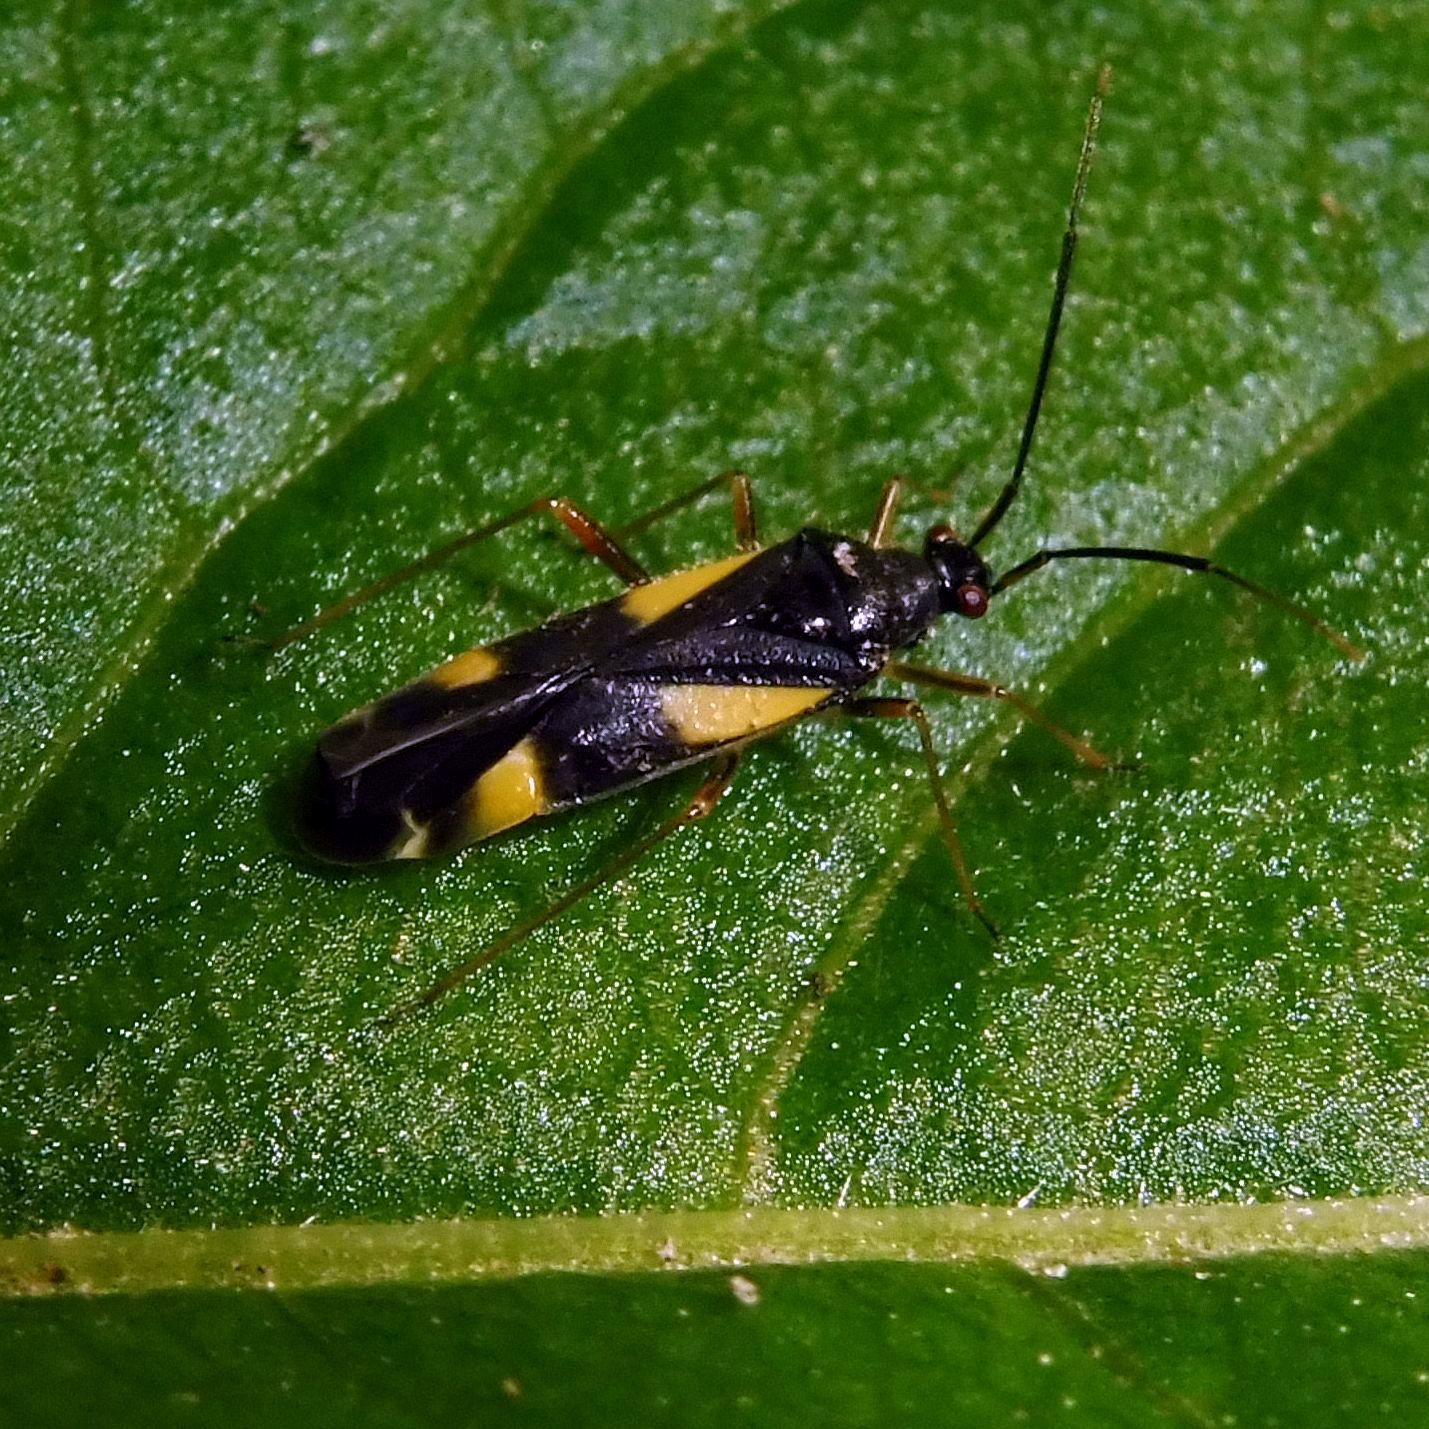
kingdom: Animalia
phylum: Arthropoda
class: Insecta
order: Hemiptera
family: Miridae
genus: Dryophilocoris
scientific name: Dryophilocoris flavoquadrimaculatus
